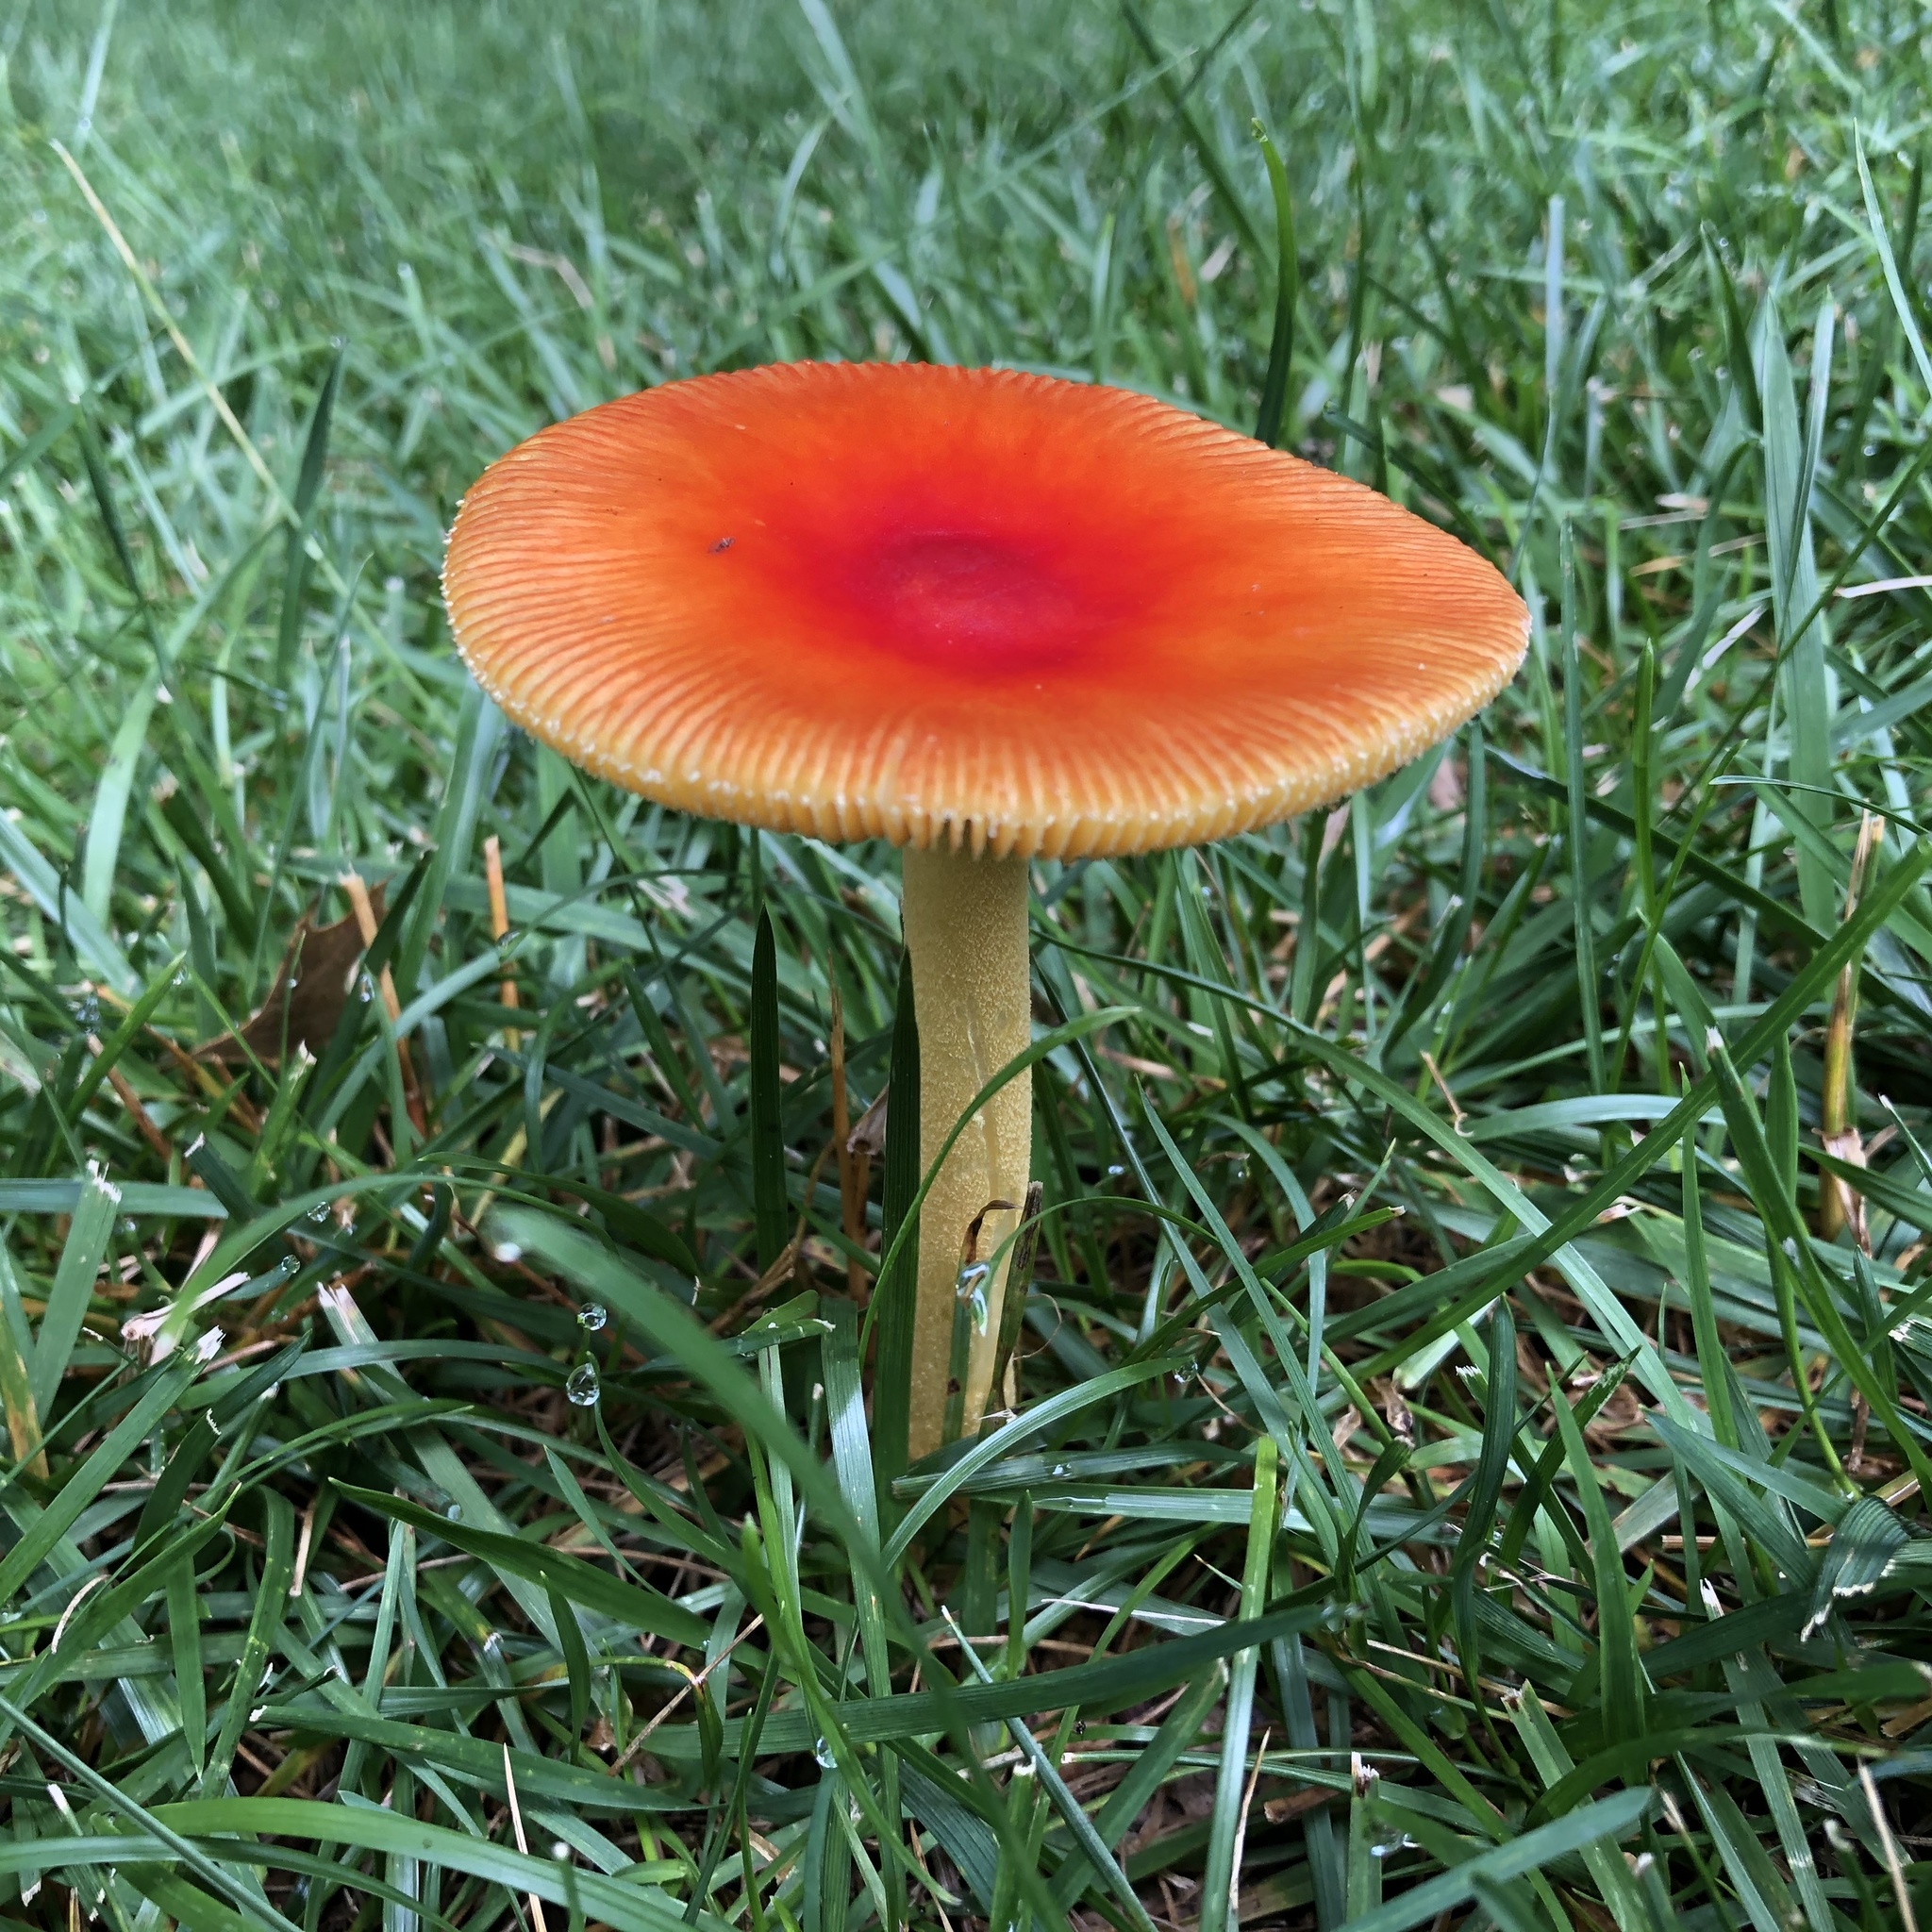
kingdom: Fungi
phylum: Basidiomycota
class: Agaricomycetes
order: Agaricales
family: Amanitaceae
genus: Amanita
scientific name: Amanita parcivolvata
